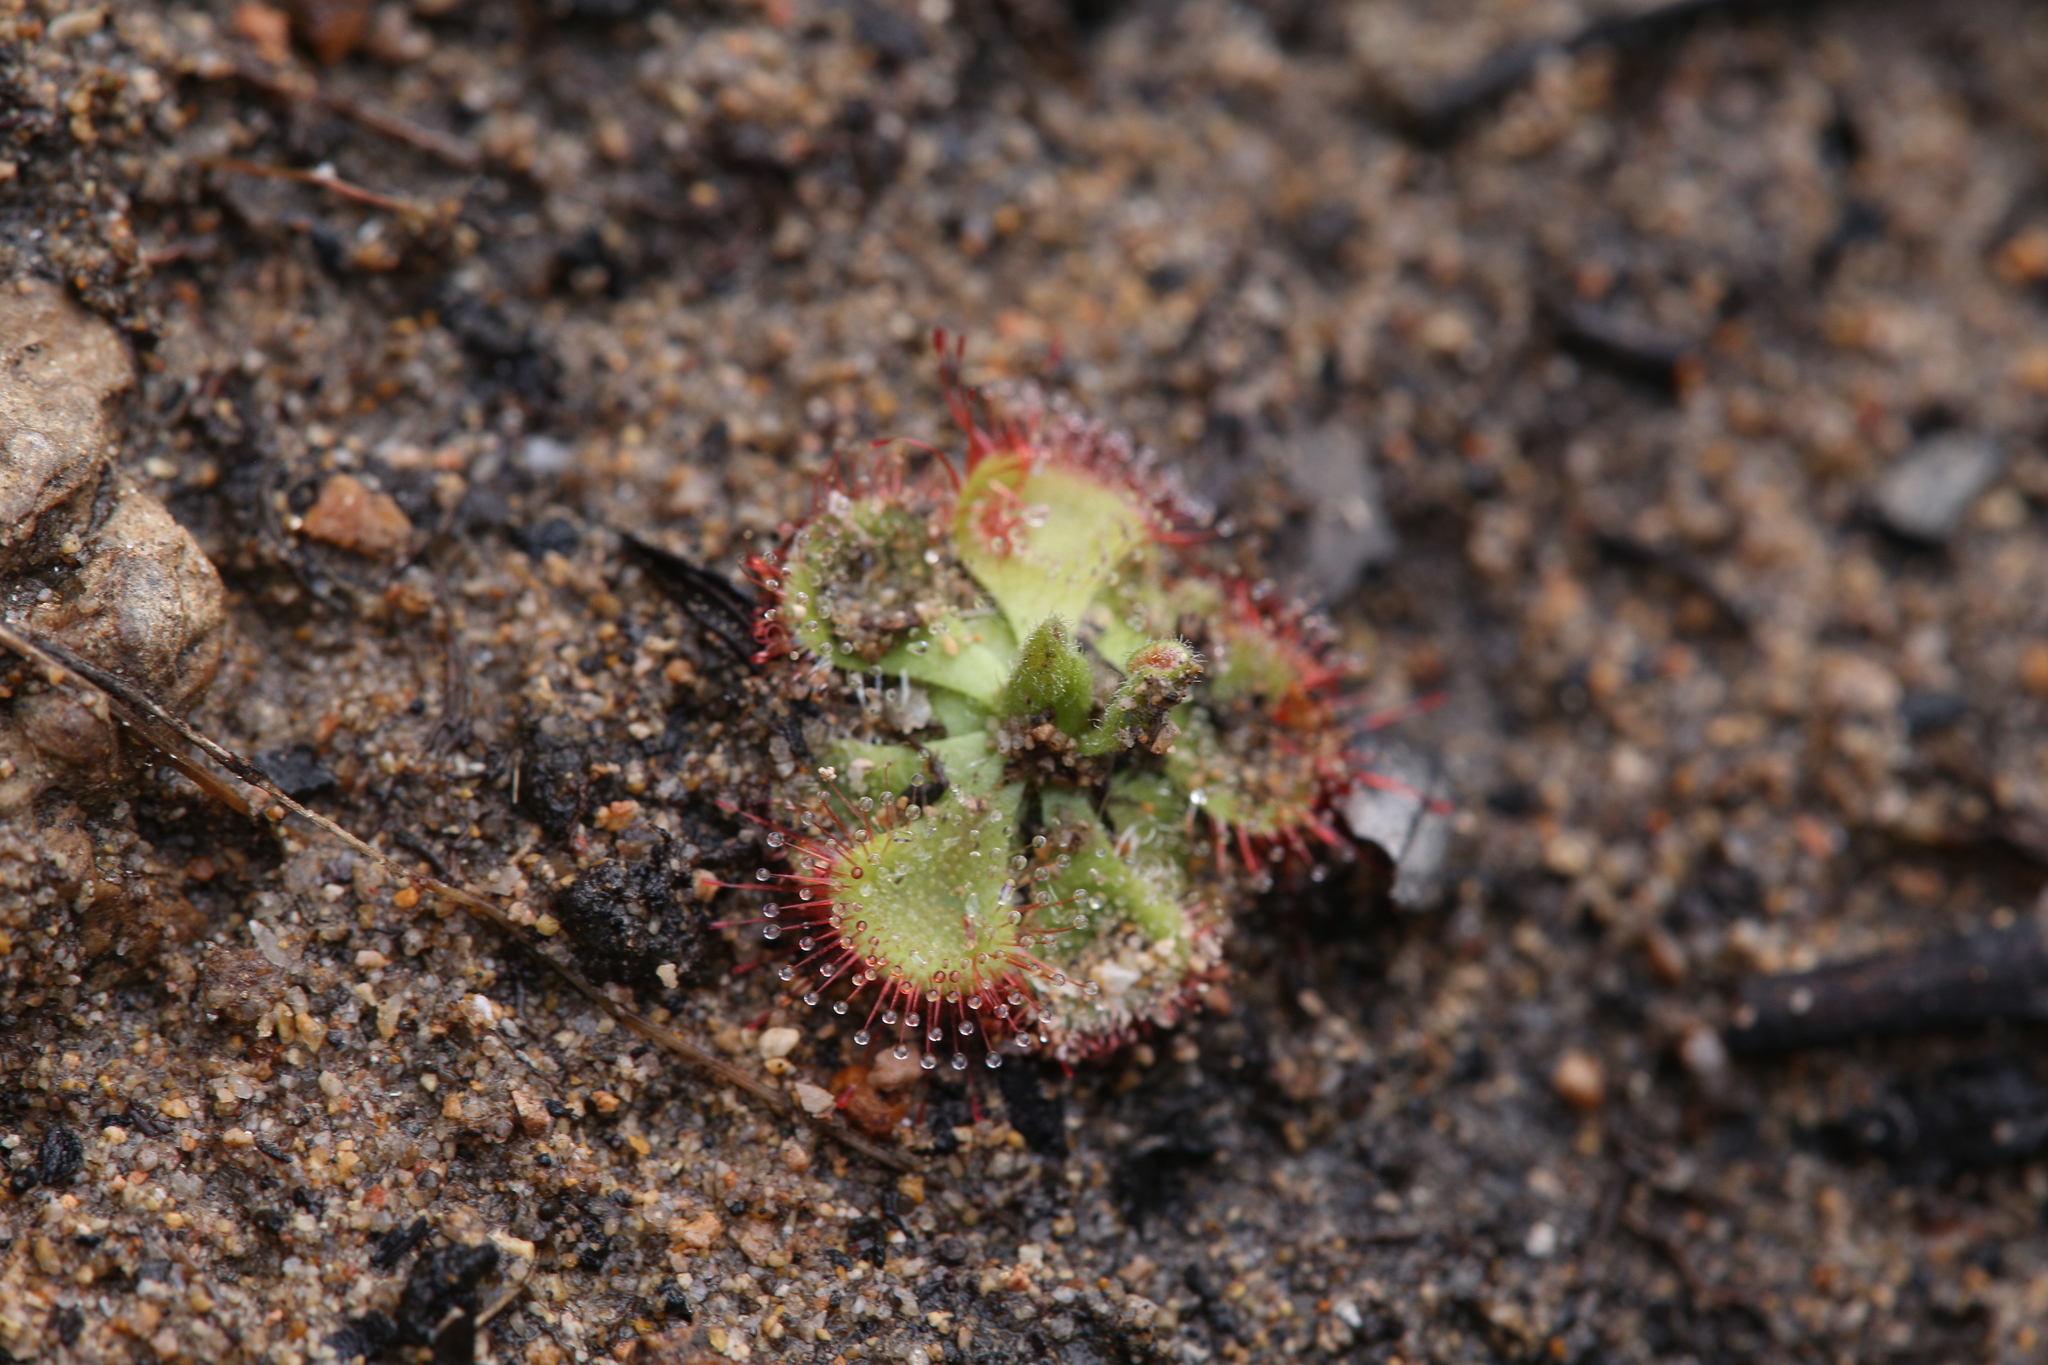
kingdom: Plantae
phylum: Tracheophyta
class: Magnoliopsida
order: Caryophyllales
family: Droseraceae
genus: Drosera
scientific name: Drosera spatulata
